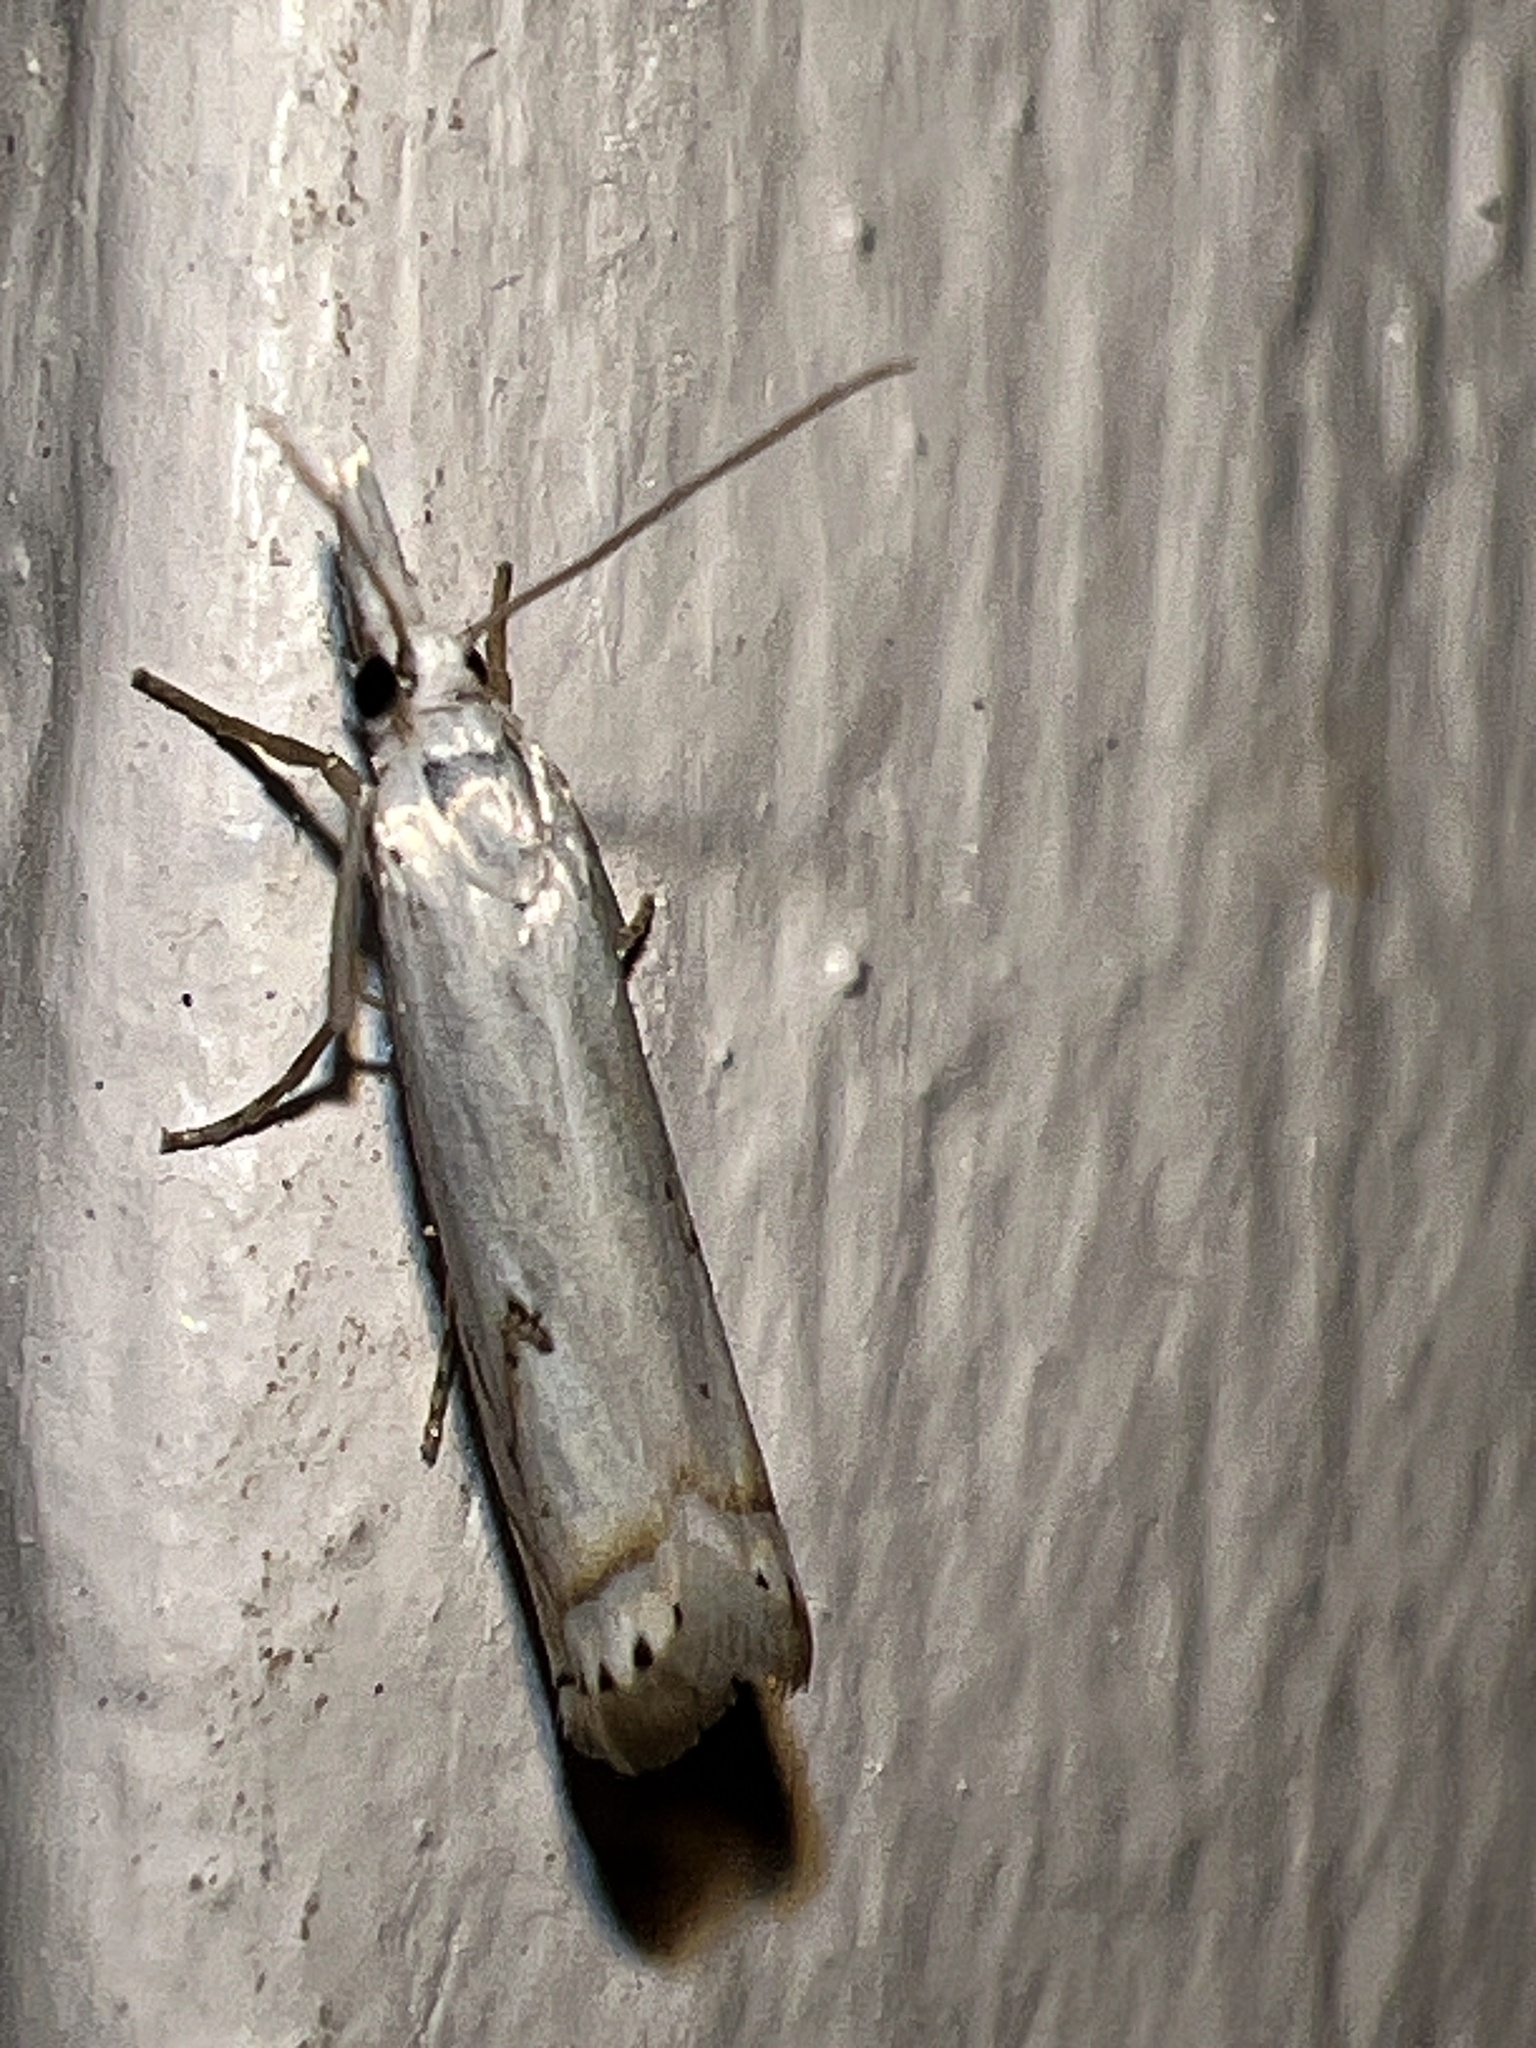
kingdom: Animalia
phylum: Arthropoda
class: Insecta
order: Lepidoptera
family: Crambidae
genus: Crambus
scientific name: Crambus albellus
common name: Small white grass-veneer
